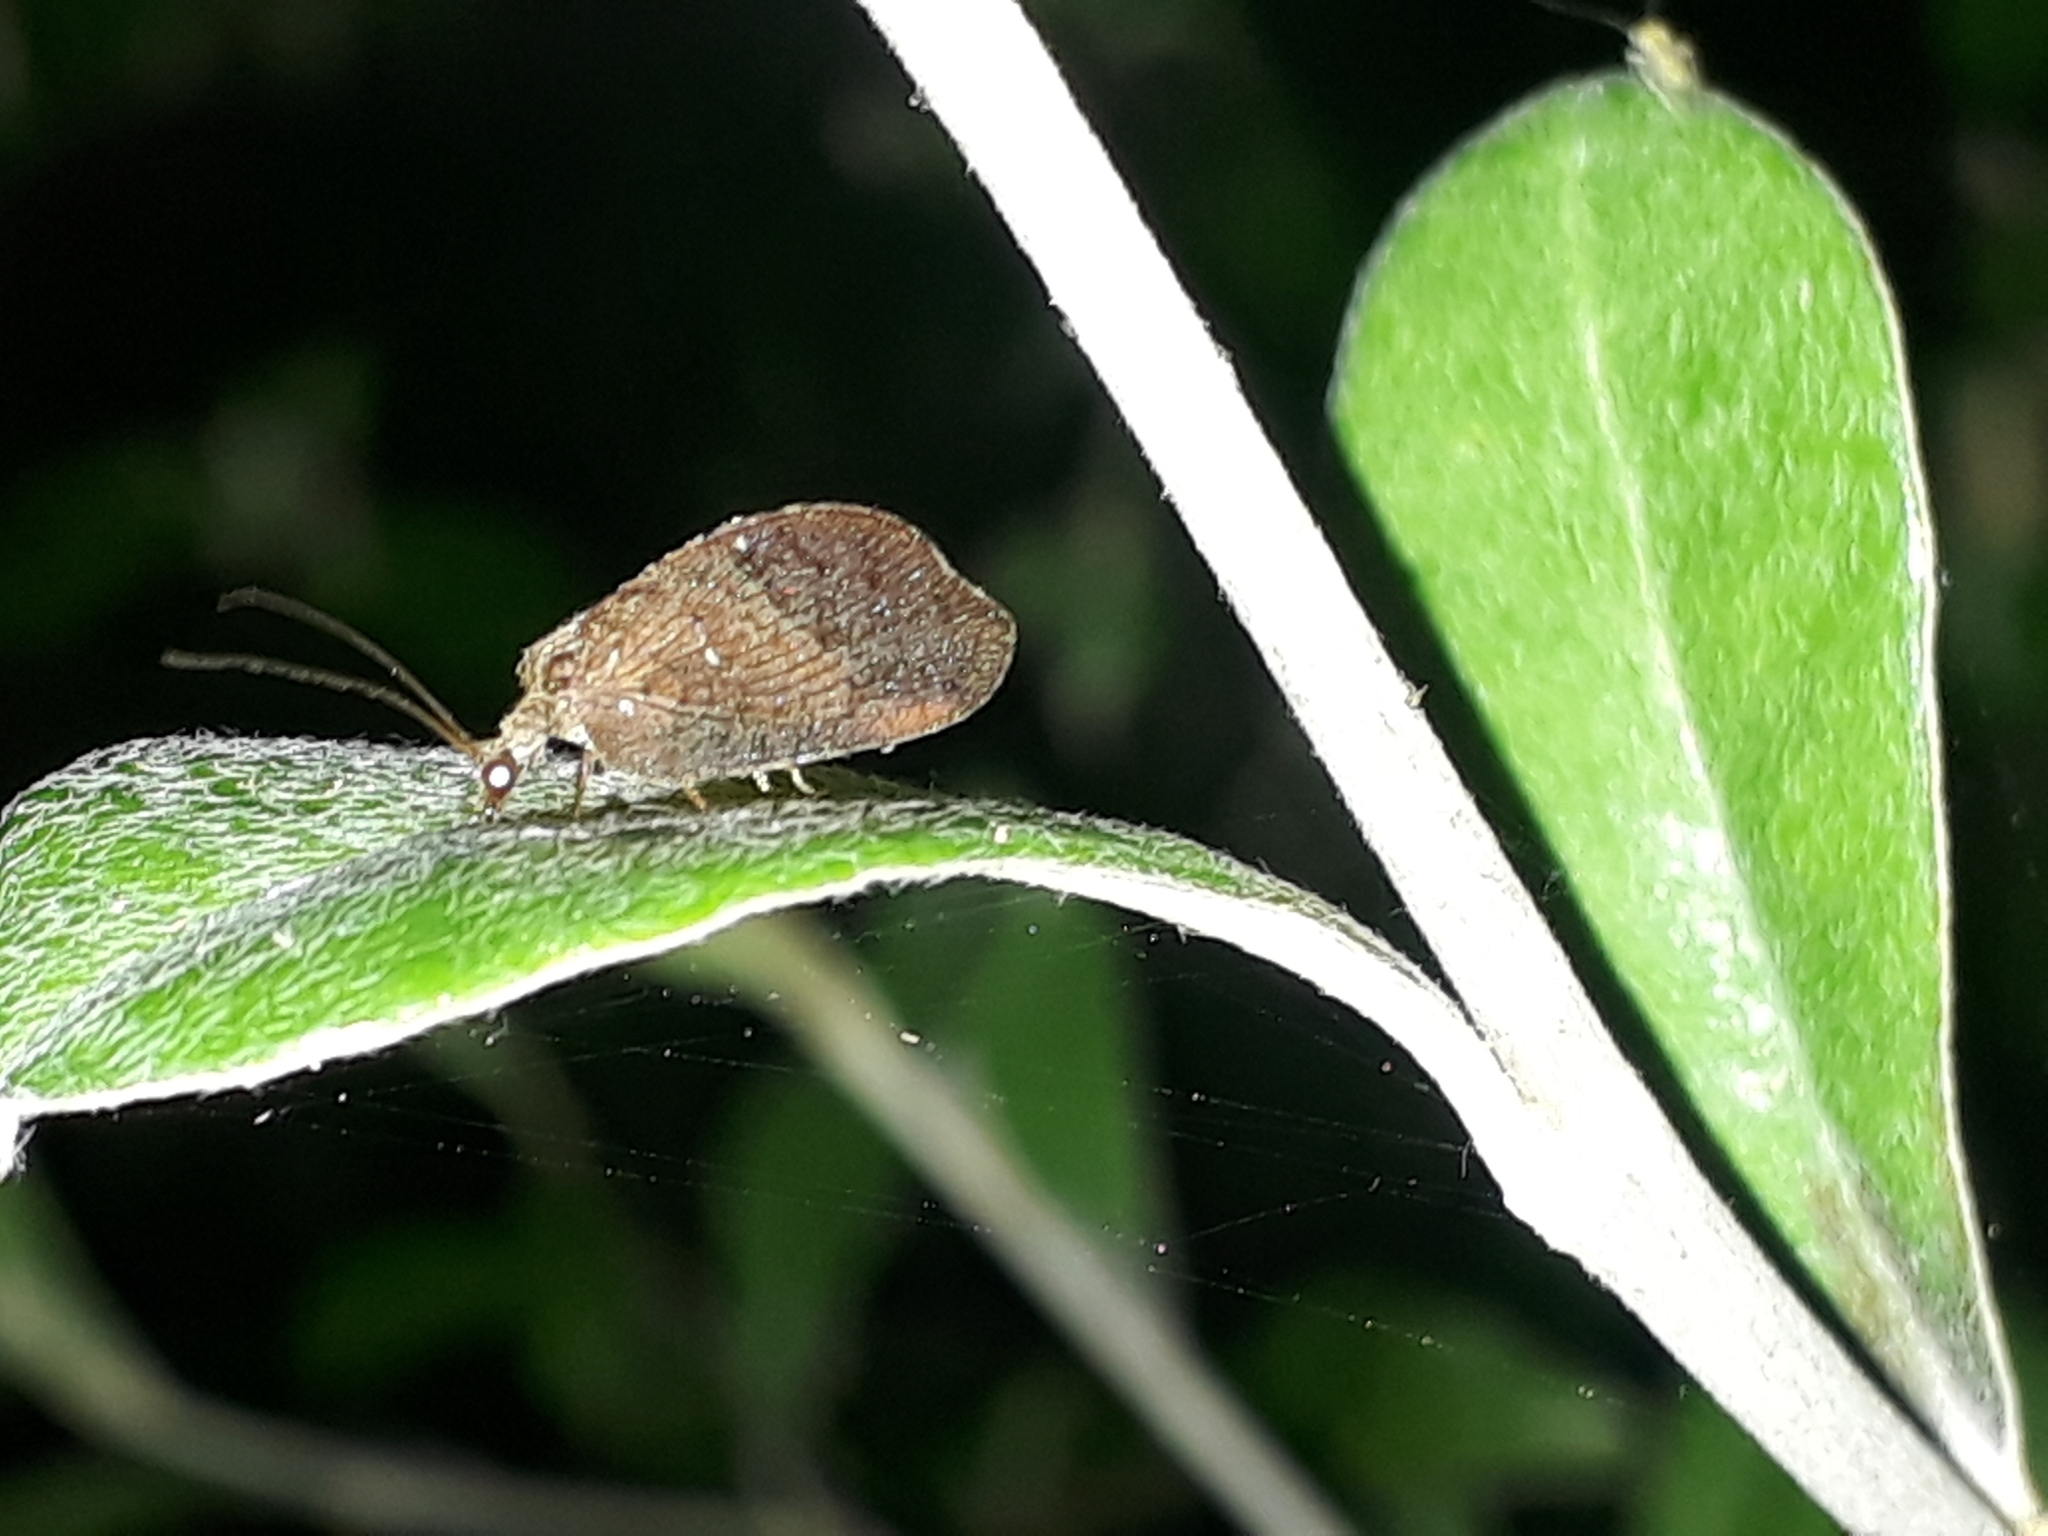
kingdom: Animalia
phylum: Arthropoda
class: Insecta
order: Neuroptera
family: Hemerobiidae
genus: Drepanacra
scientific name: Drepanacra binocula
